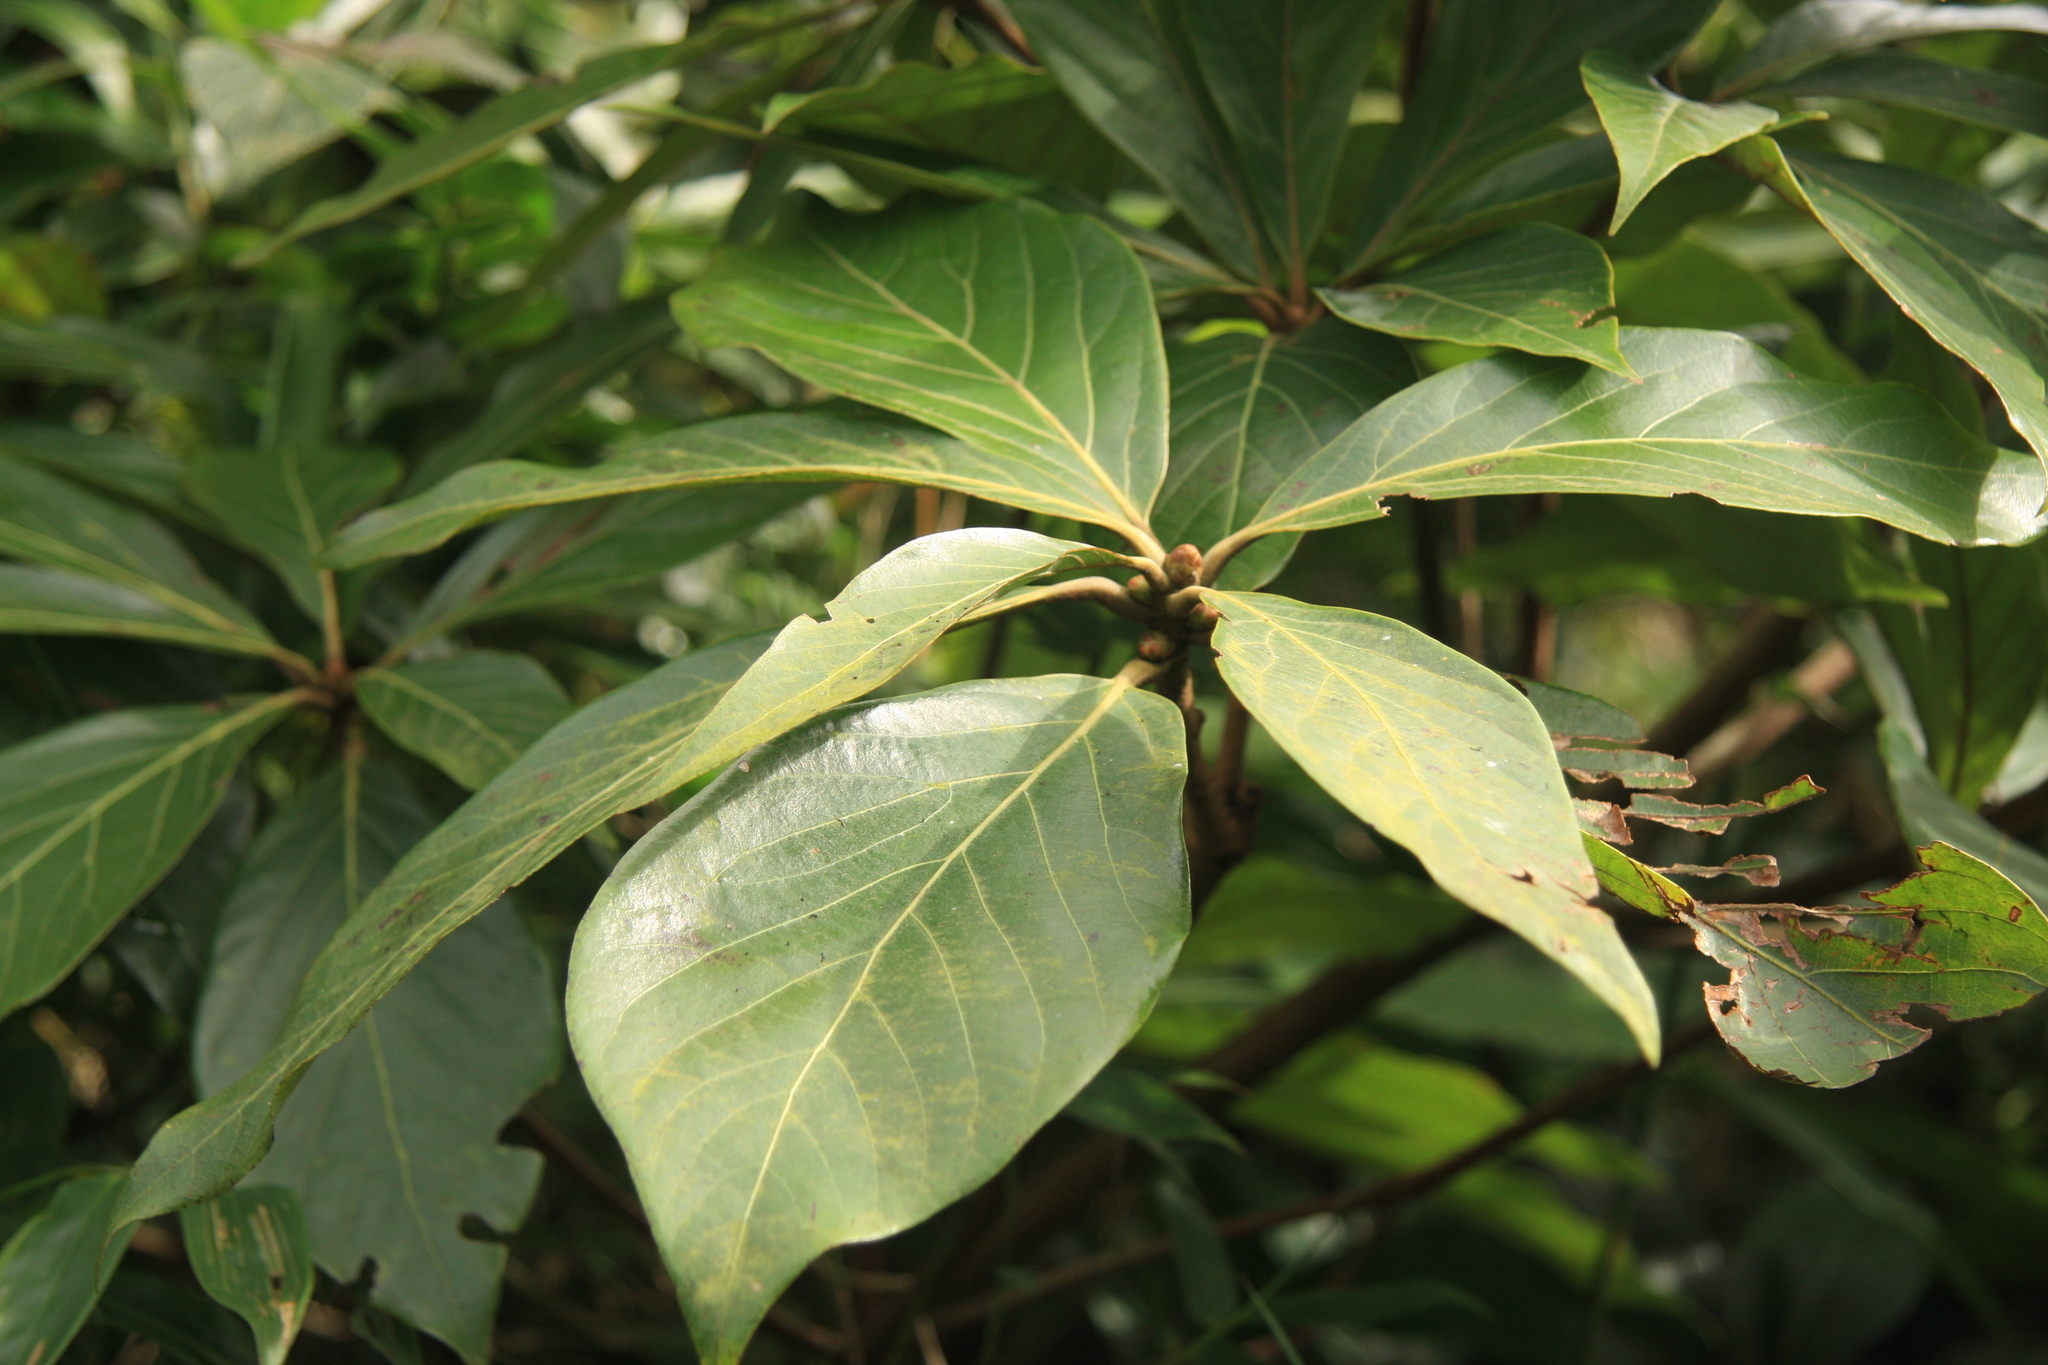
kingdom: Plantae
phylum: Tracheophyta
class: Magnoliopsida
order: Laurales
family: Lauraceae
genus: Actinodaphne
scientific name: Actinodaphne bourdillonii
